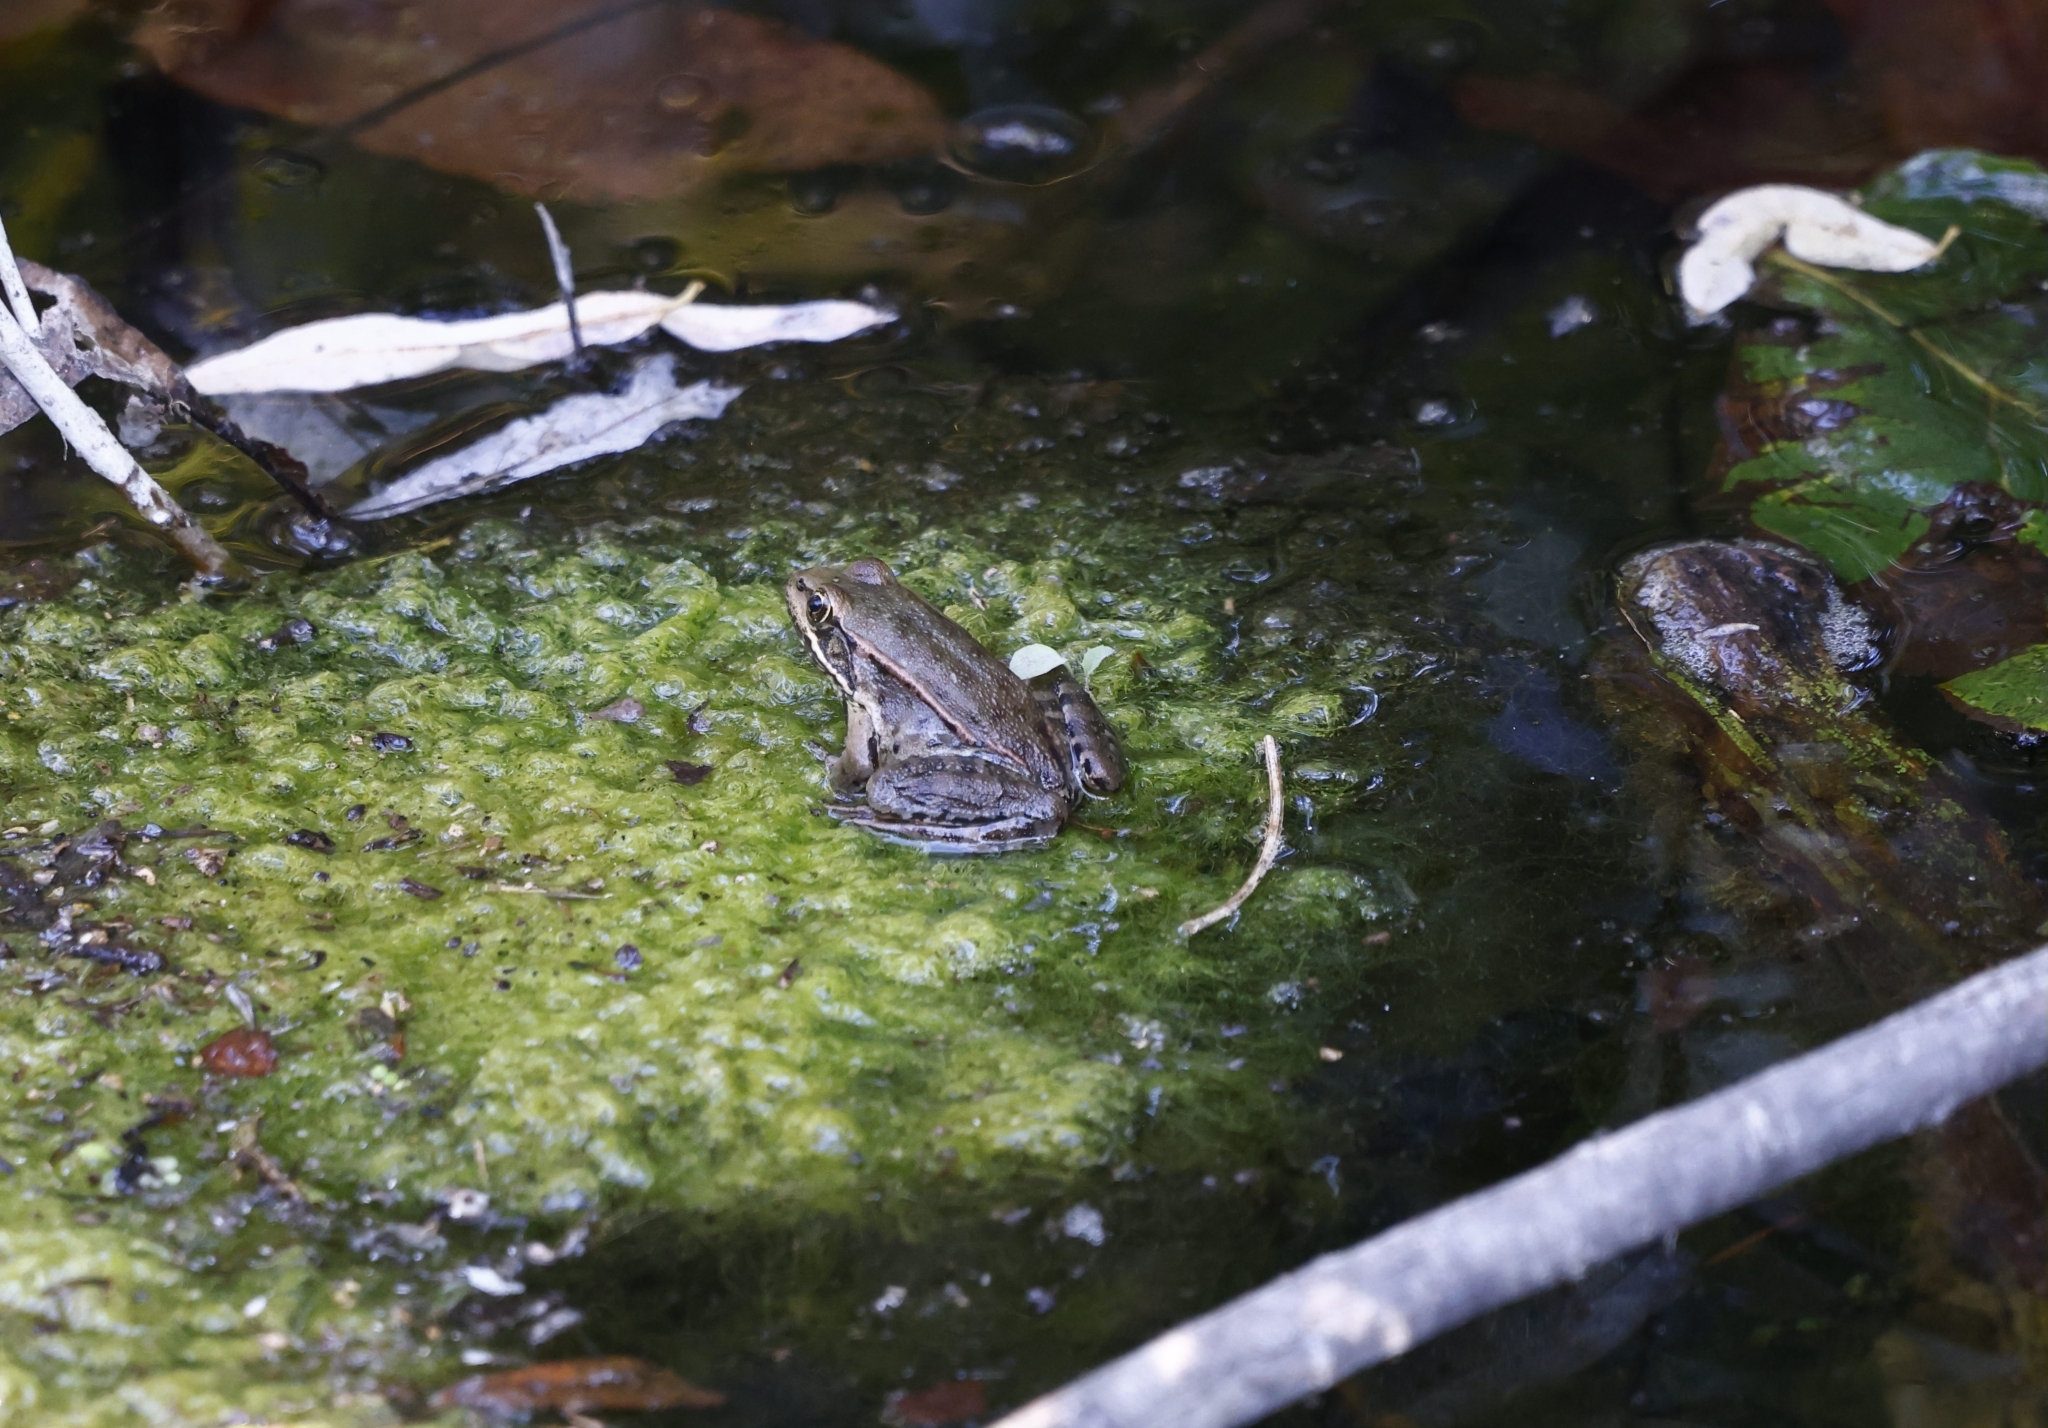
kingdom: Animalia
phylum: Chordata
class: Amphibia
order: Anura
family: Ranidae
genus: Rana
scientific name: Rana draytonii
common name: California red-legged frog
